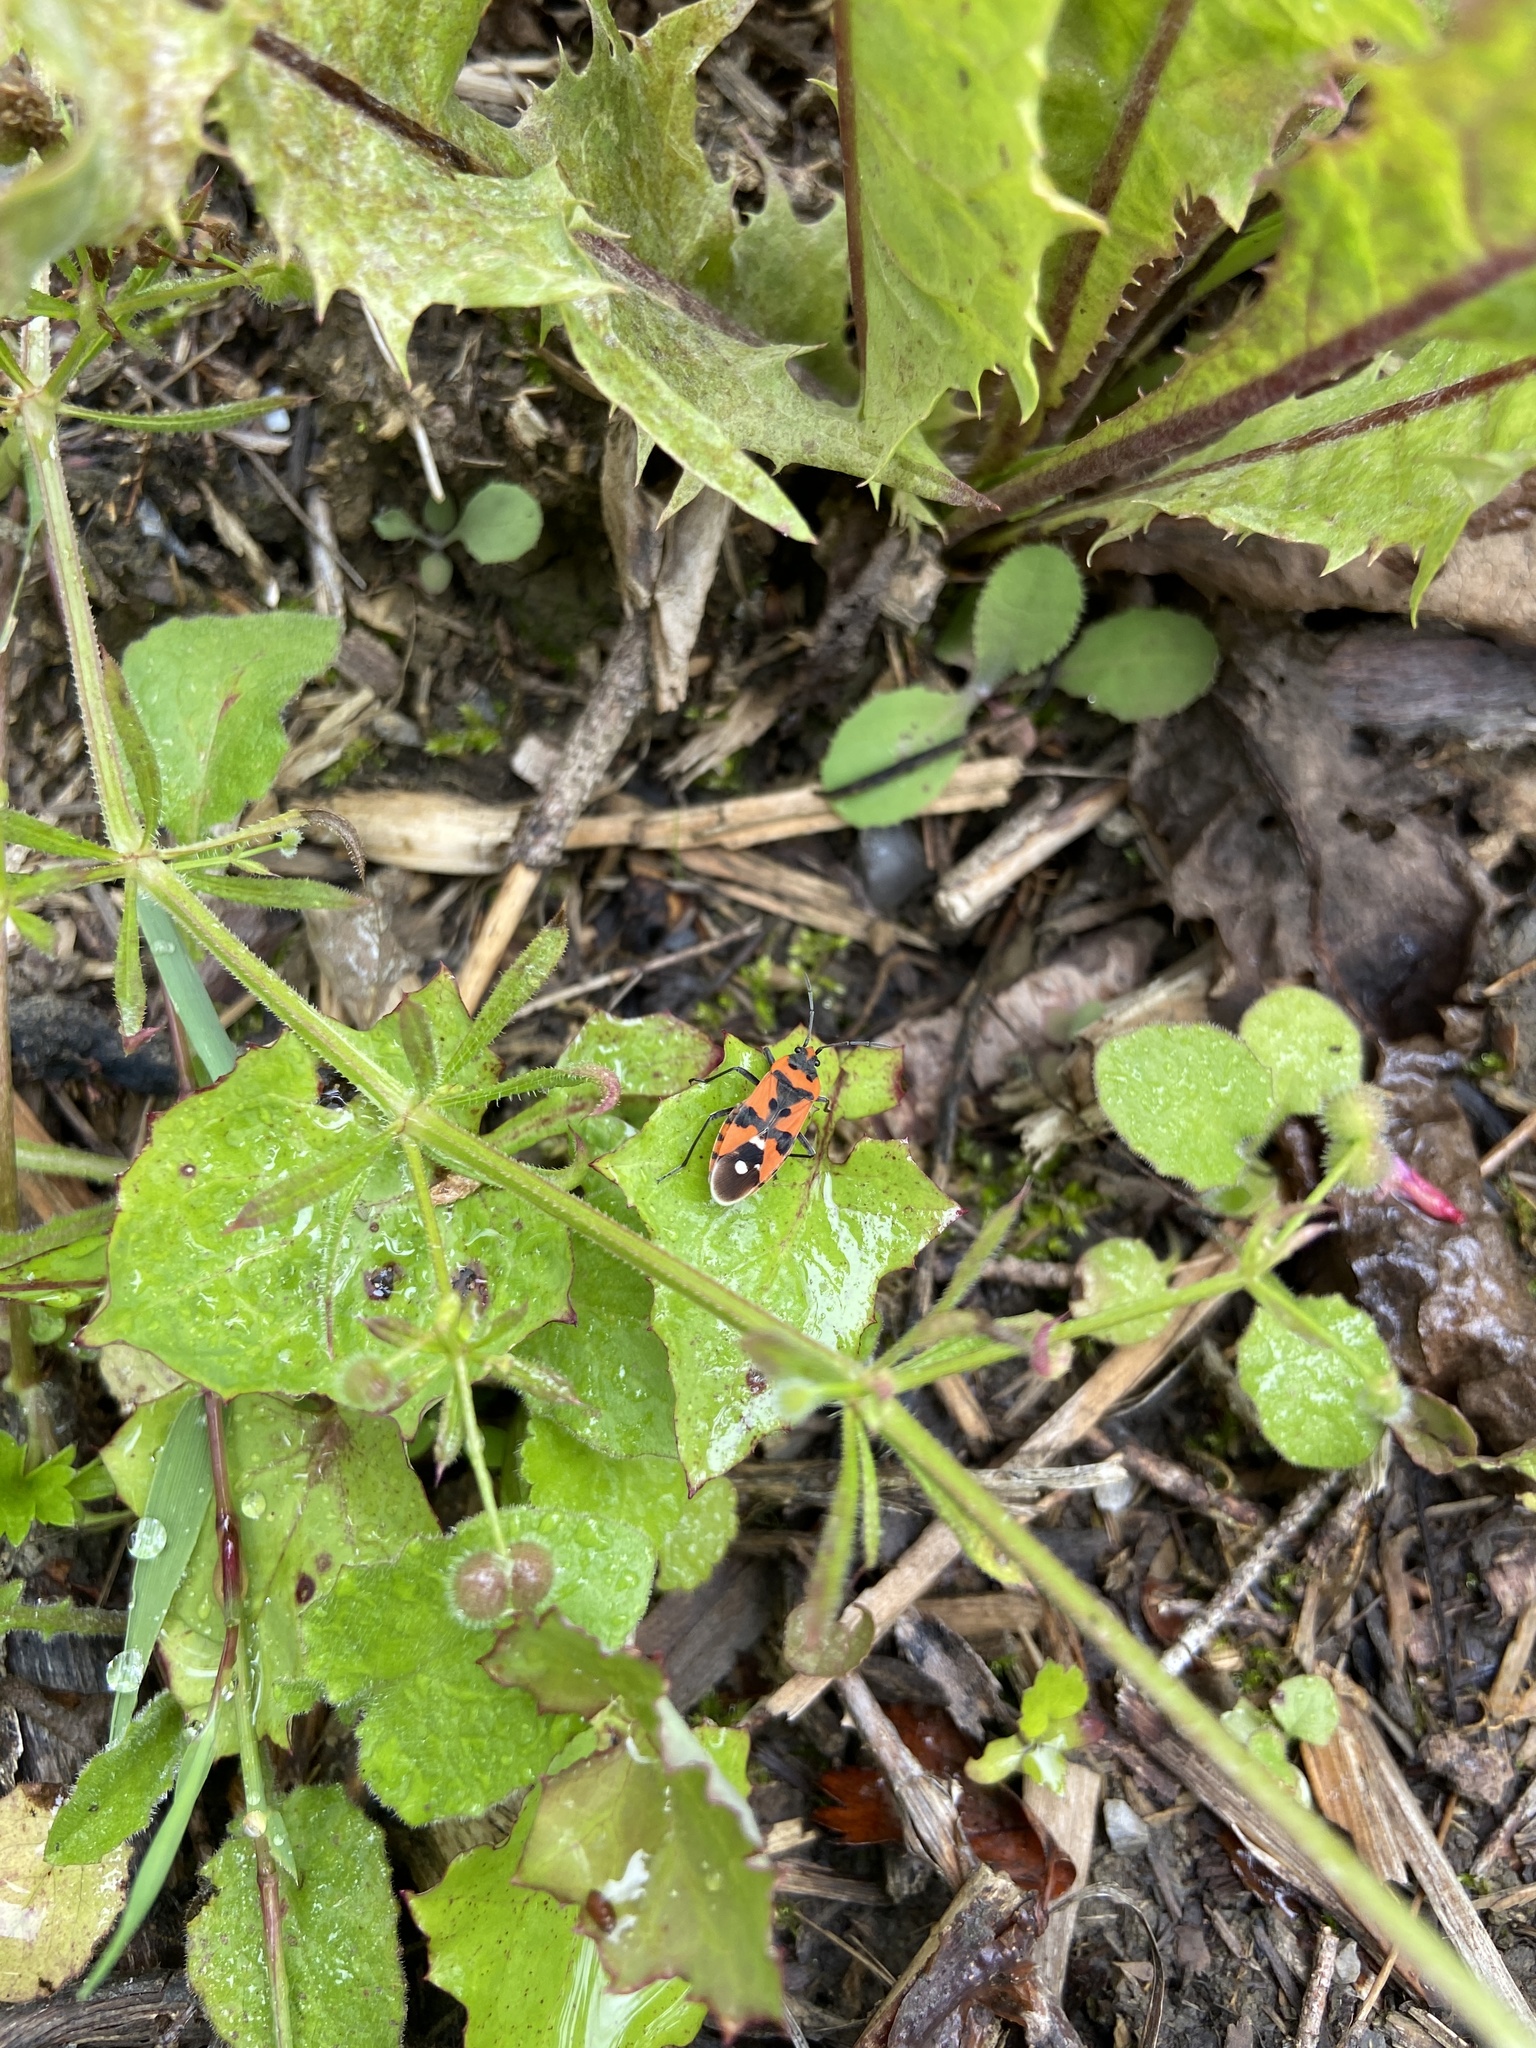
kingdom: Animalia
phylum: Arthropoda
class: Insecta
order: Hemiptera
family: Lygaeidae
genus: Lygaeus
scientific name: Lygaeus equestris
